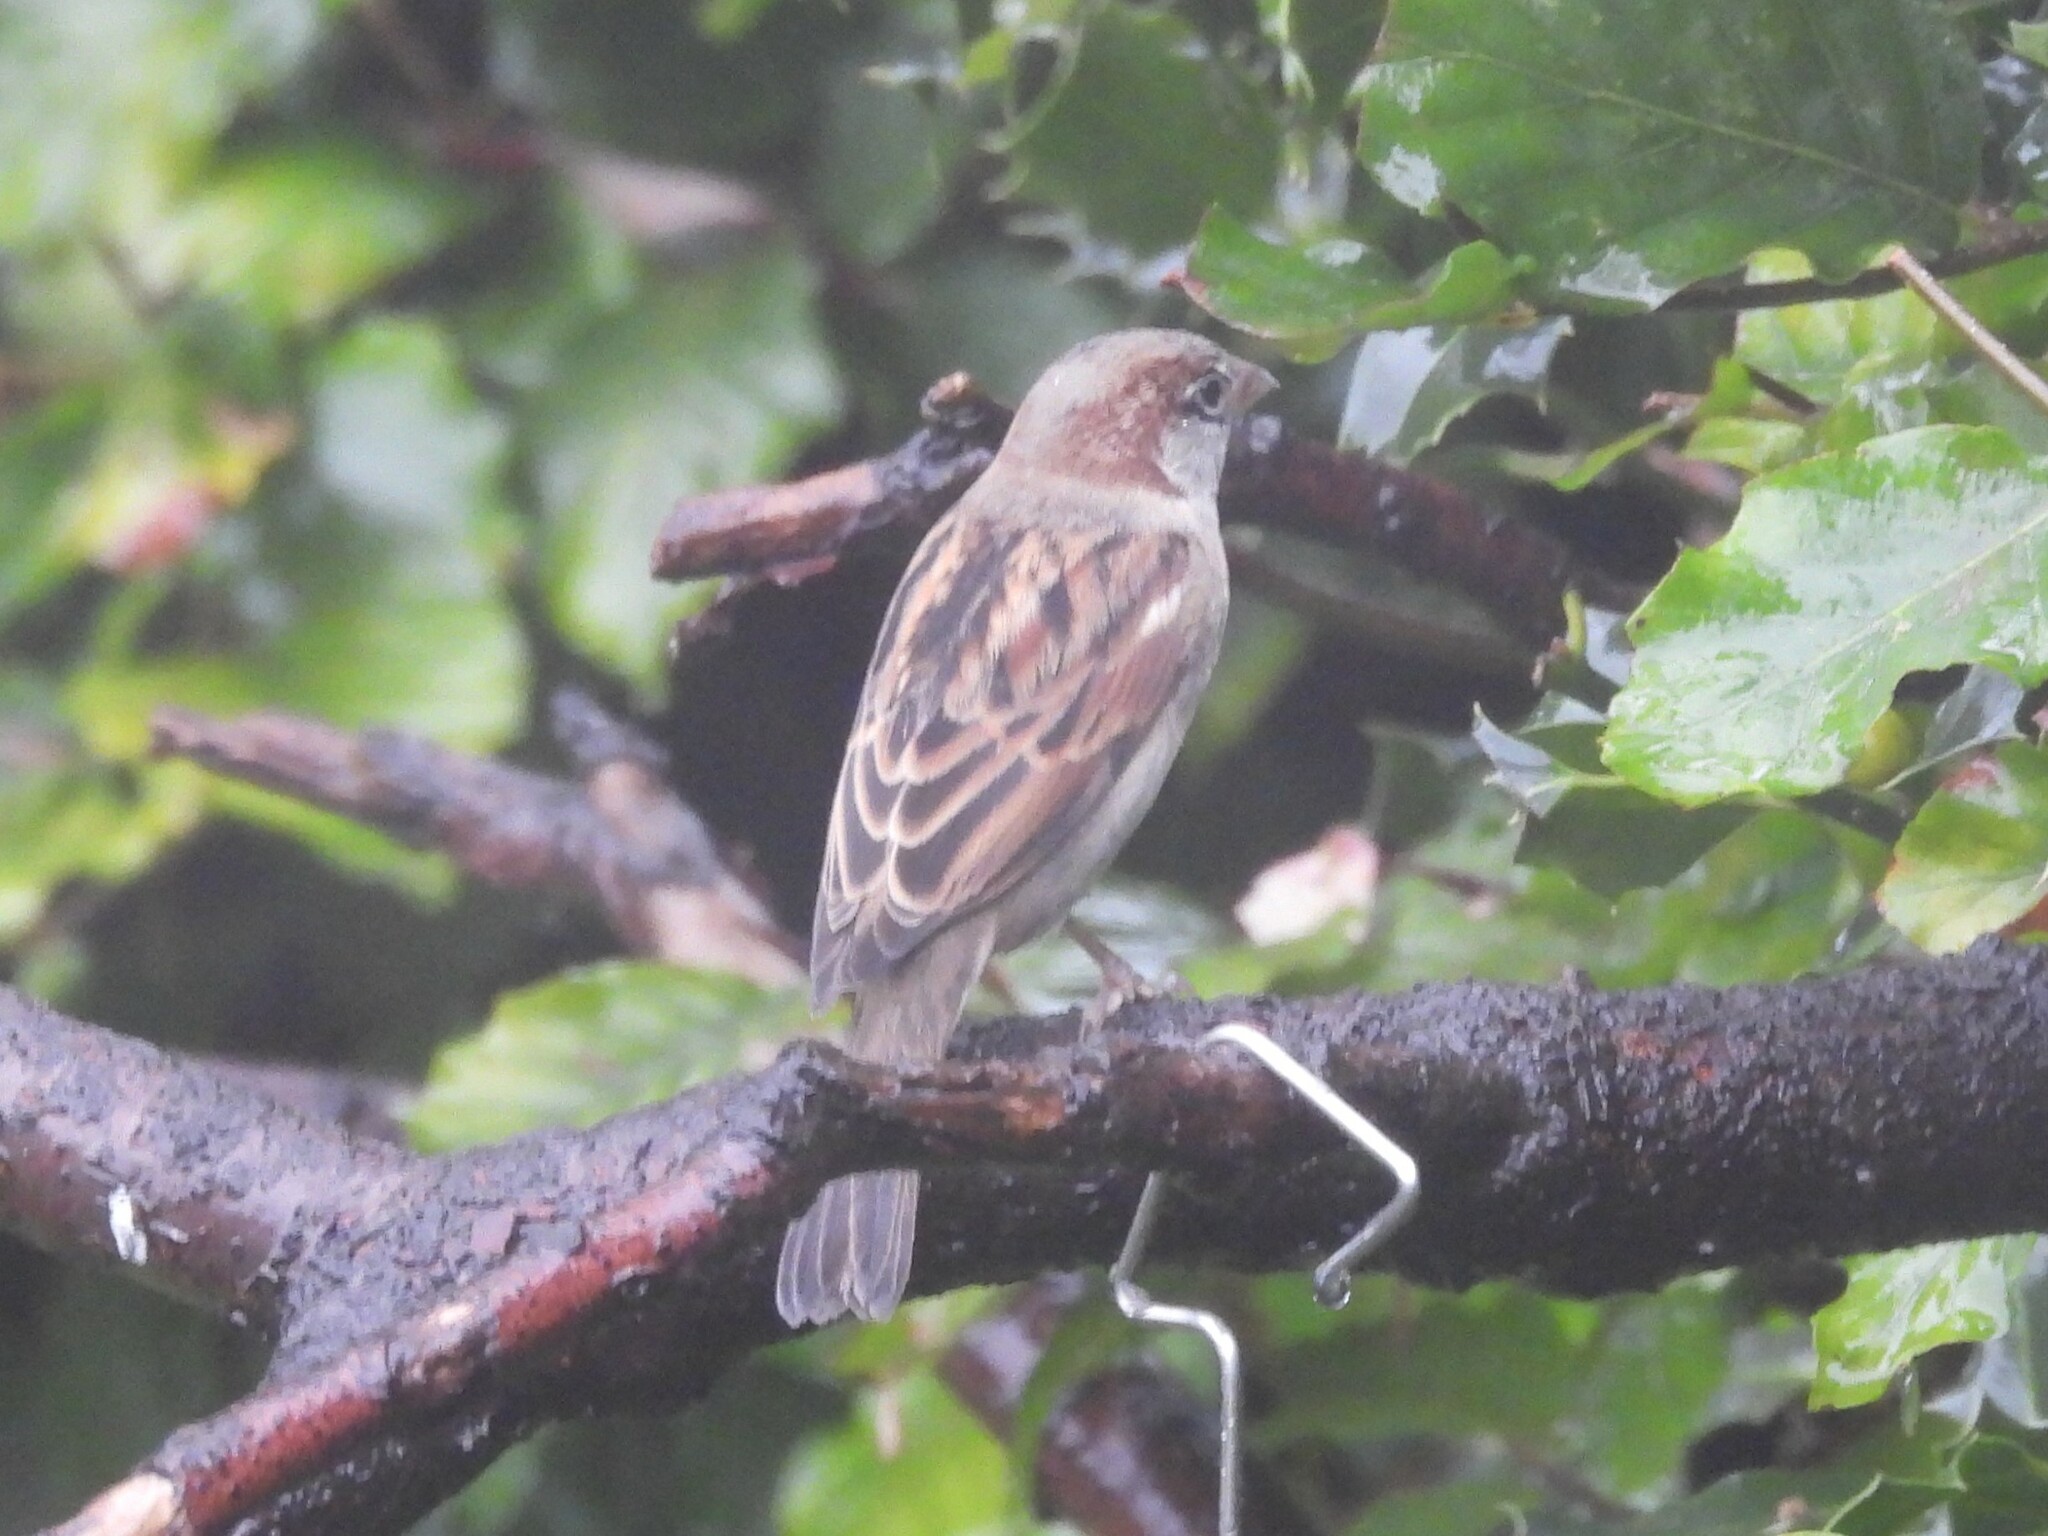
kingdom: Animalia
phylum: Chordata
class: Aves
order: Passeriformes
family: Passeridae
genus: Passer
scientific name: Passer domesticus
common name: House sparrow
